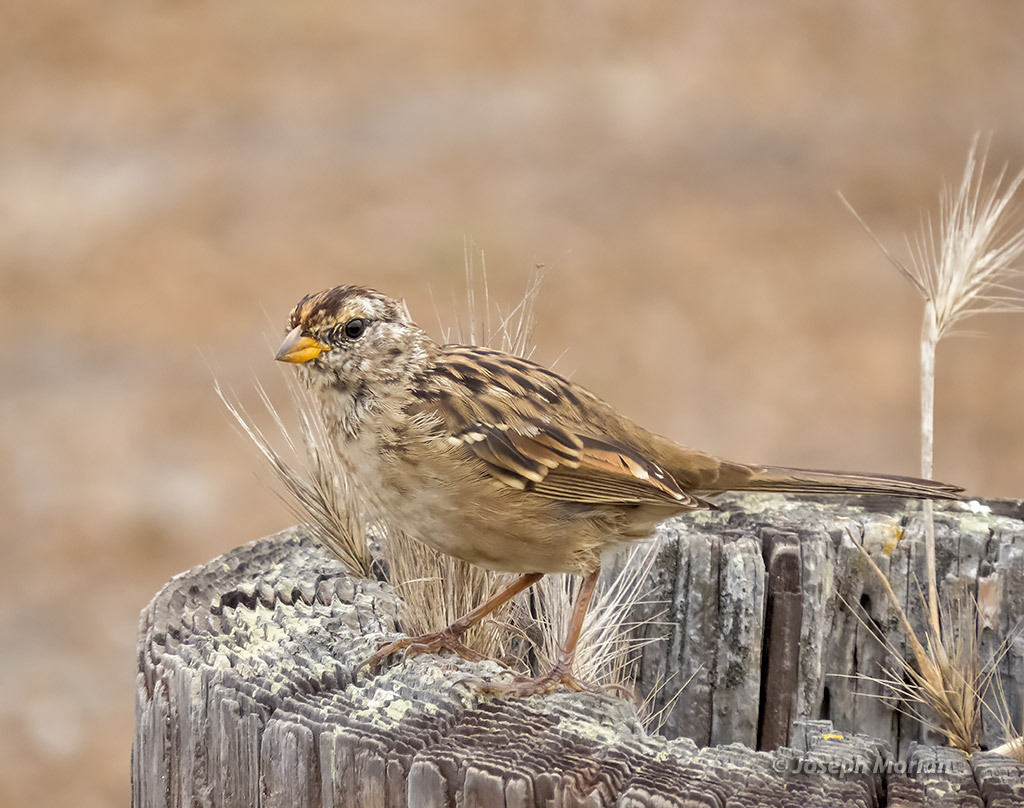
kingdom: Animalia
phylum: Chordata
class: Aves
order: Passeriformes
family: Passerellidae
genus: Zonotrichia
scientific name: Zonotrichia leucophrys
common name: White-crowned sparrow
